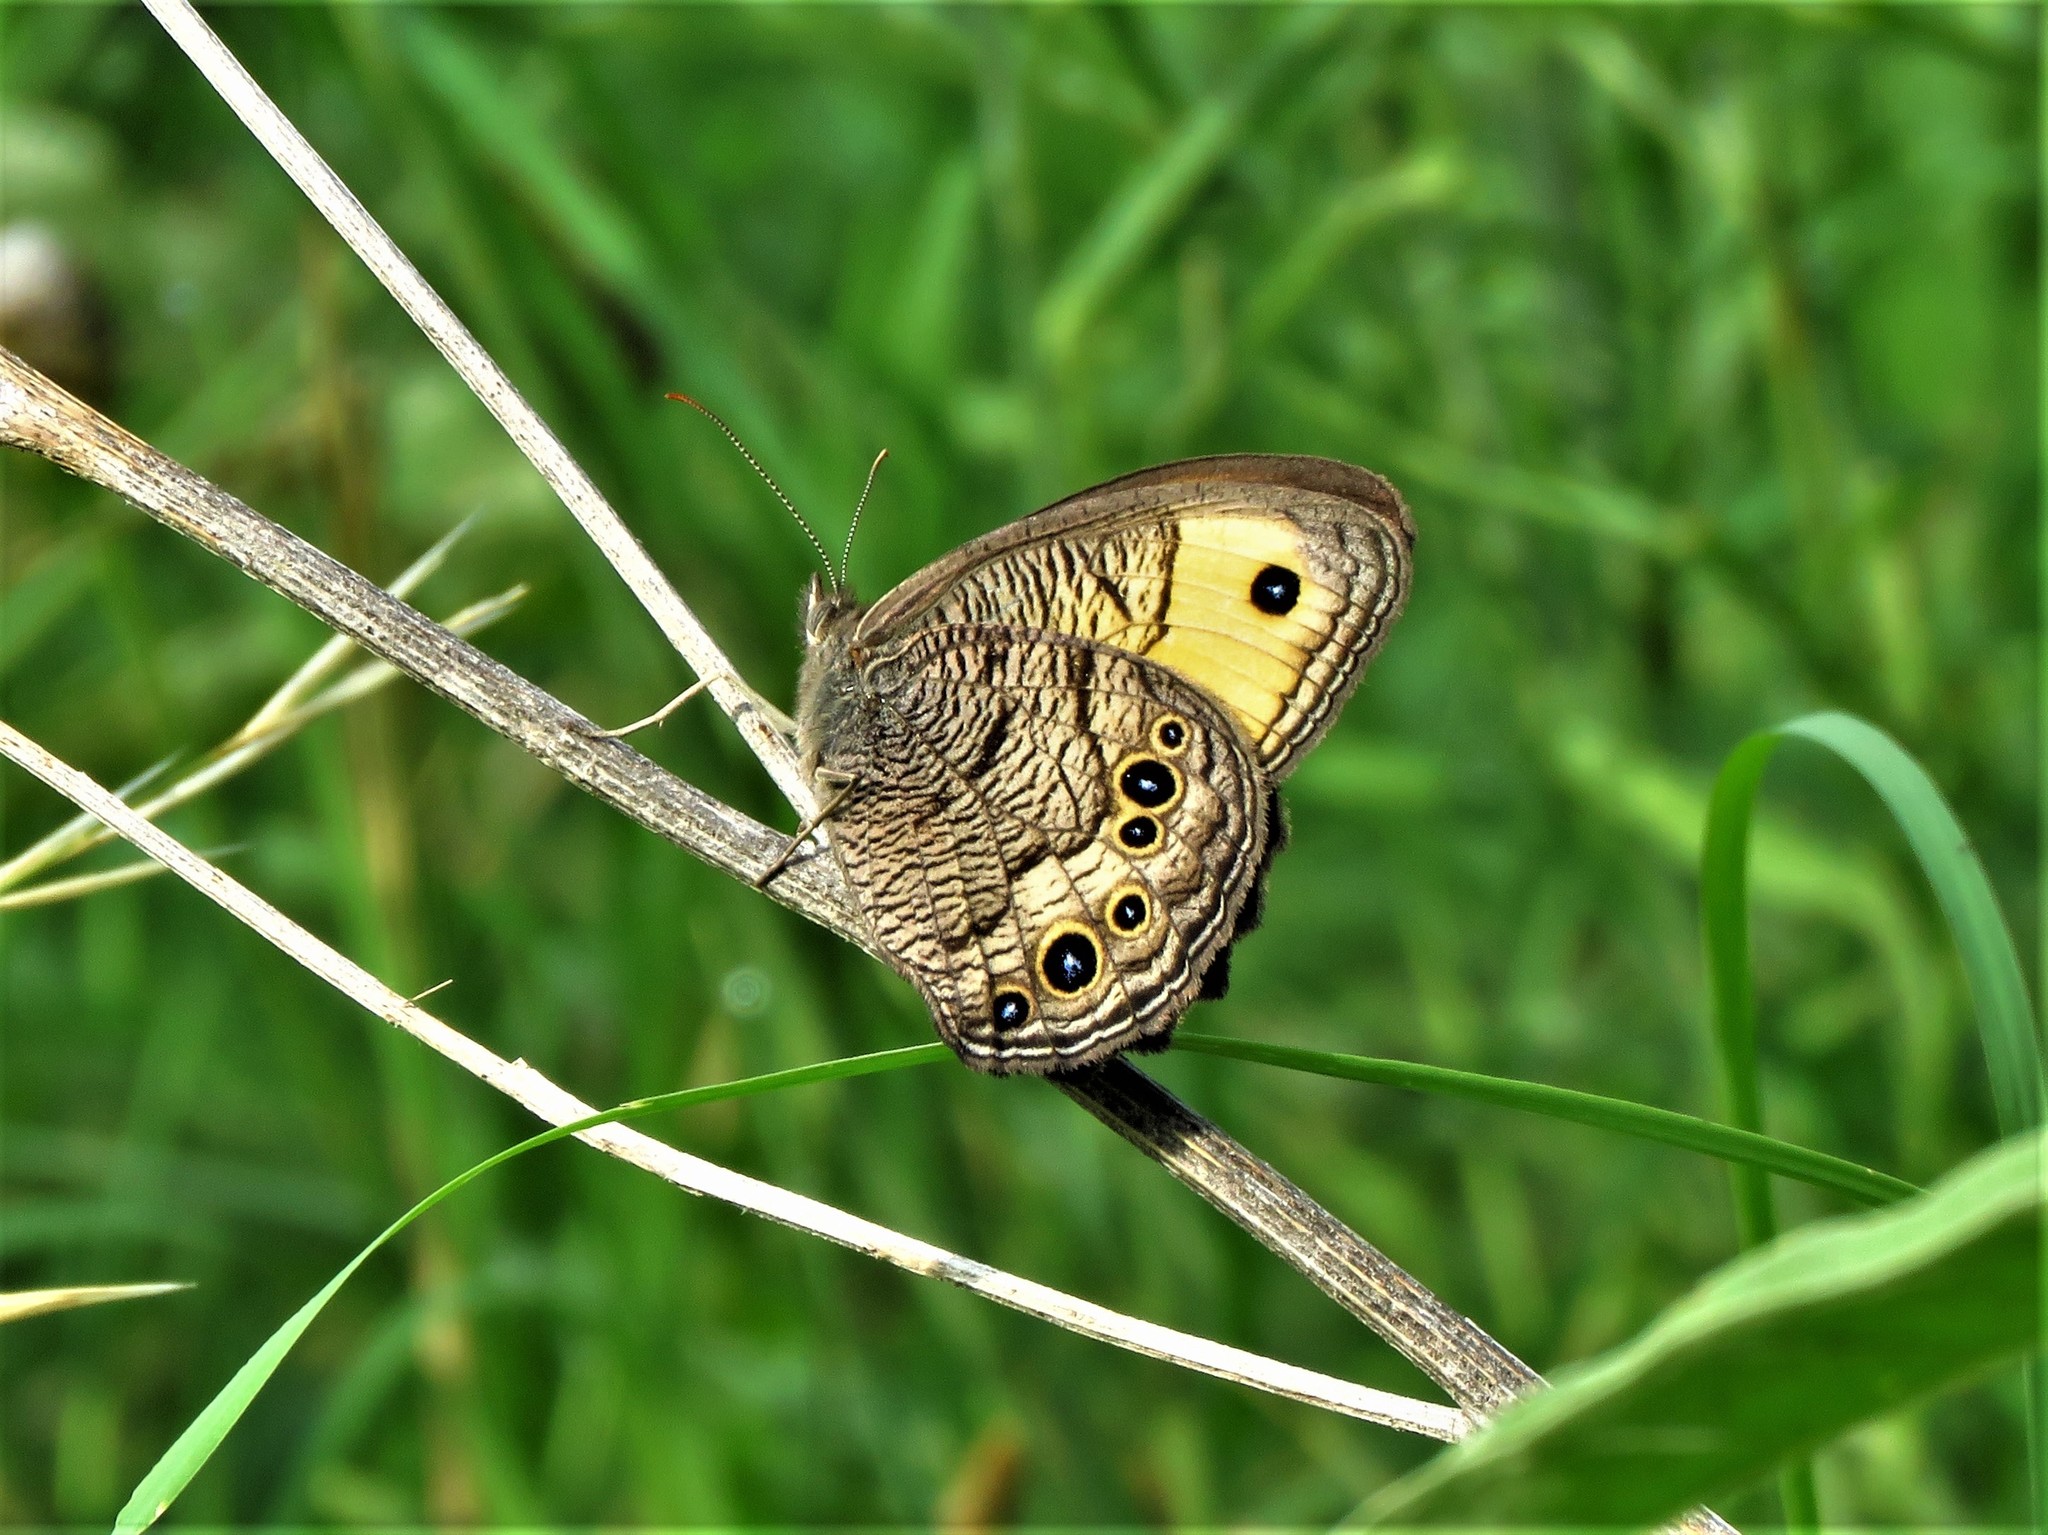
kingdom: Animalia
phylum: Arthropoda
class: Insecta
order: Lepidoptera
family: Nymphalidae
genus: Cercyonis
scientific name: Cercyonis pegala
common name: Common wood-nymph
